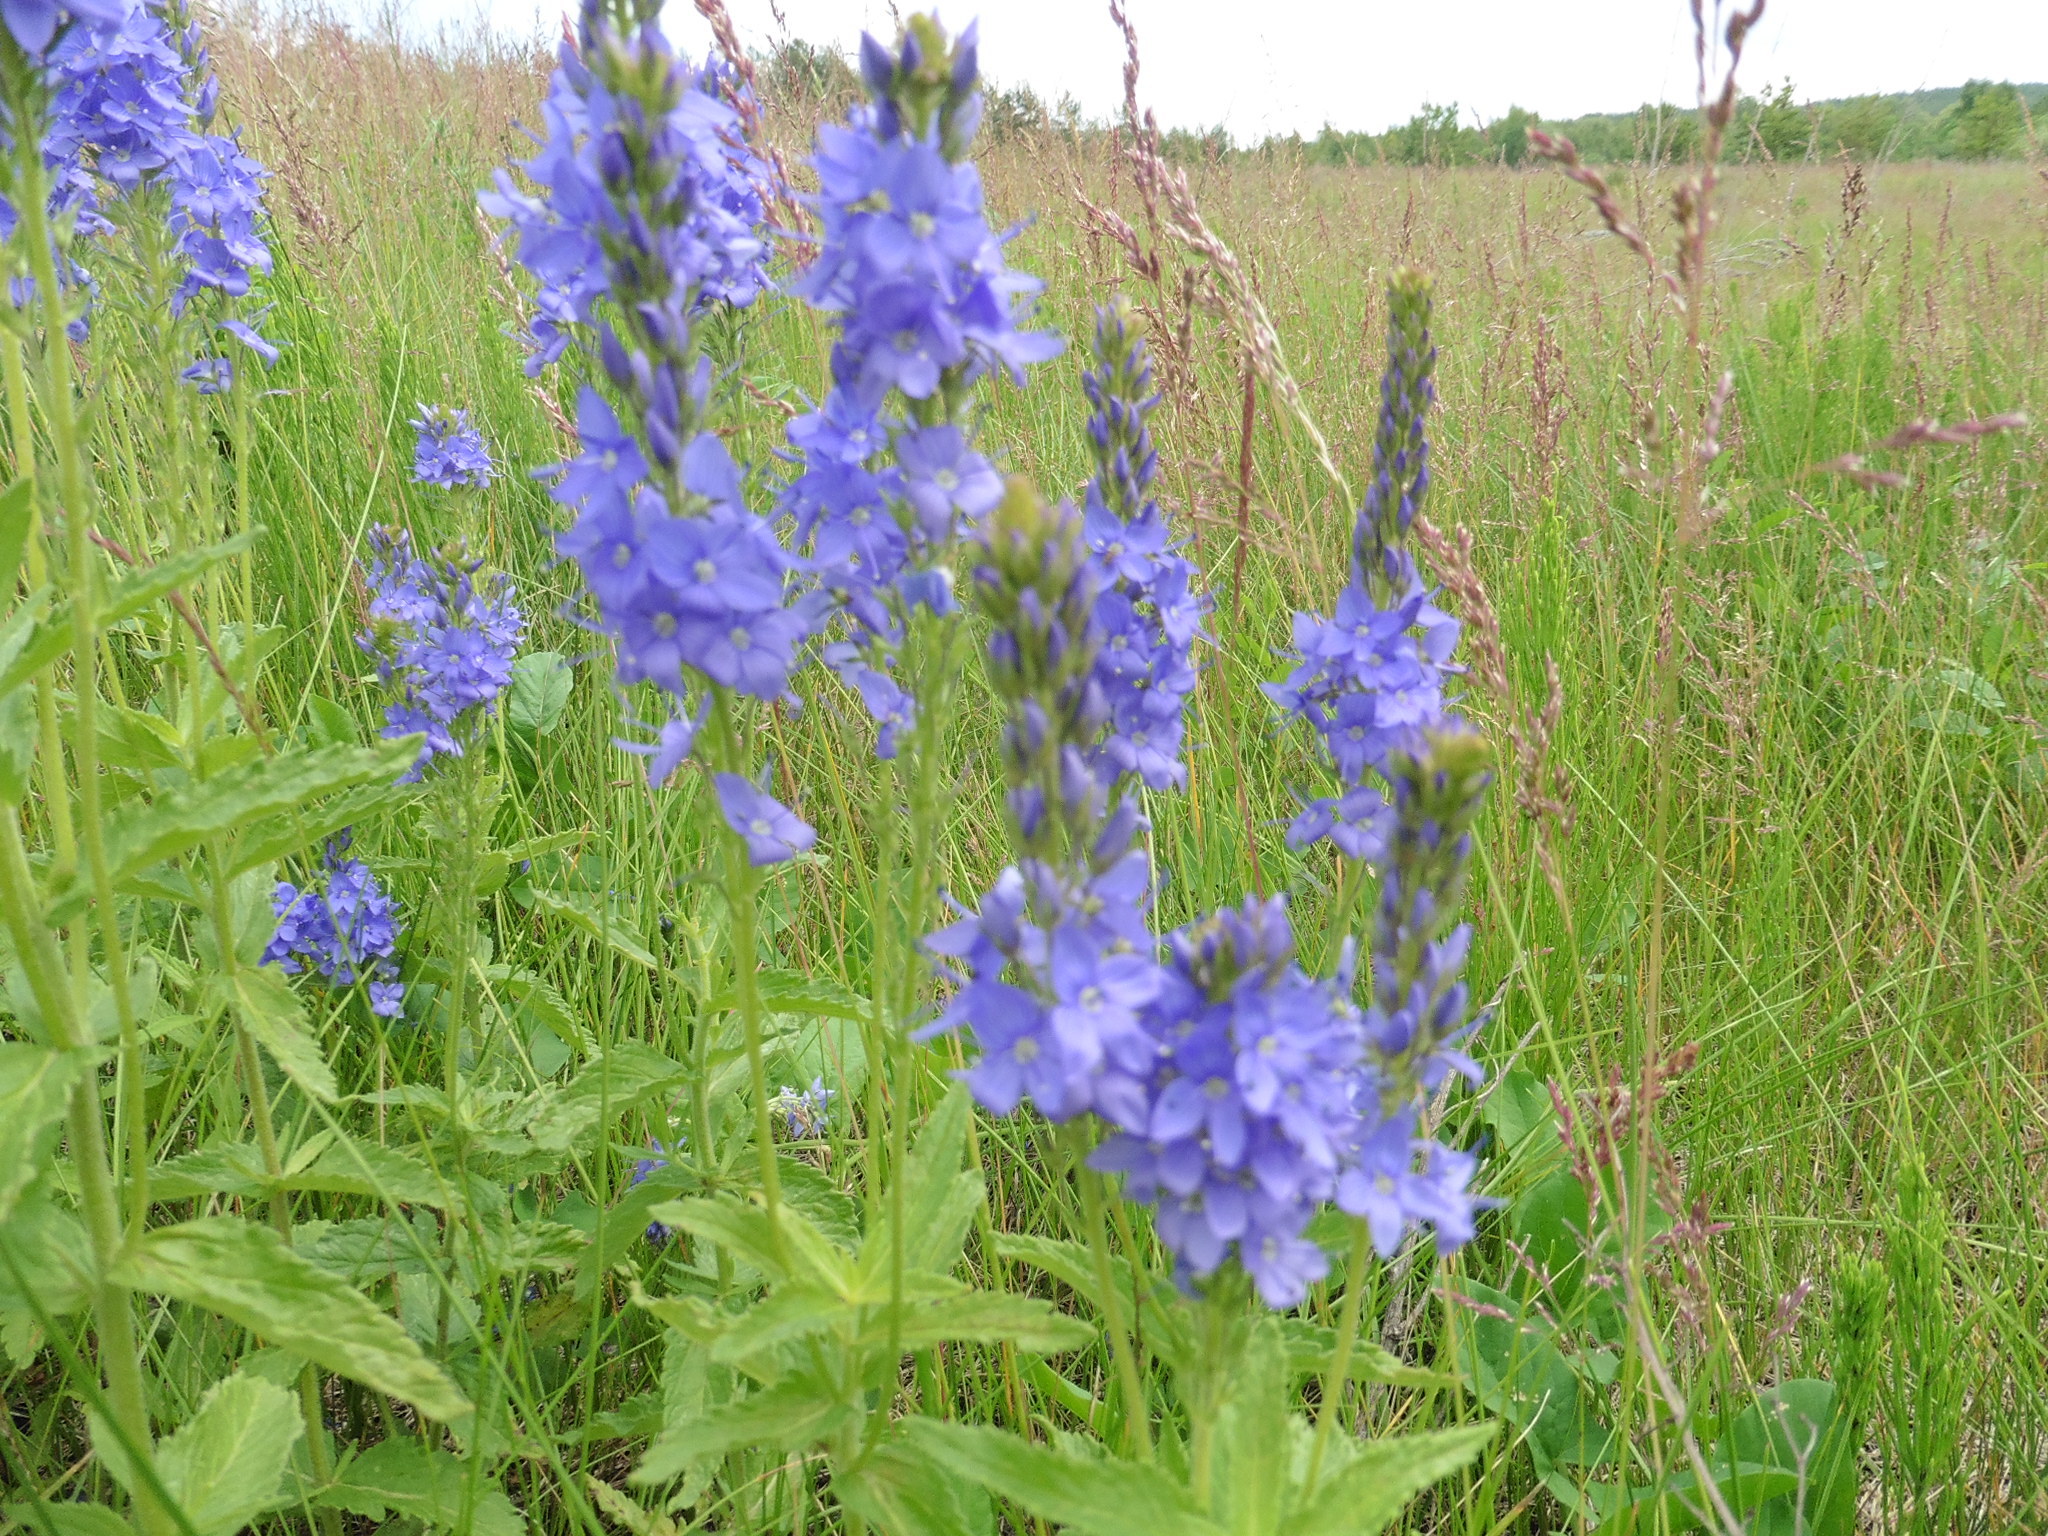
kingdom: Plantae
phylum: Tracheophyta
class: Magnoliopsida
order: Lamiales
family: Plantaginaceae
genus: Veronica
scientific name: Veronica teucrium
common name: Large speedwell
